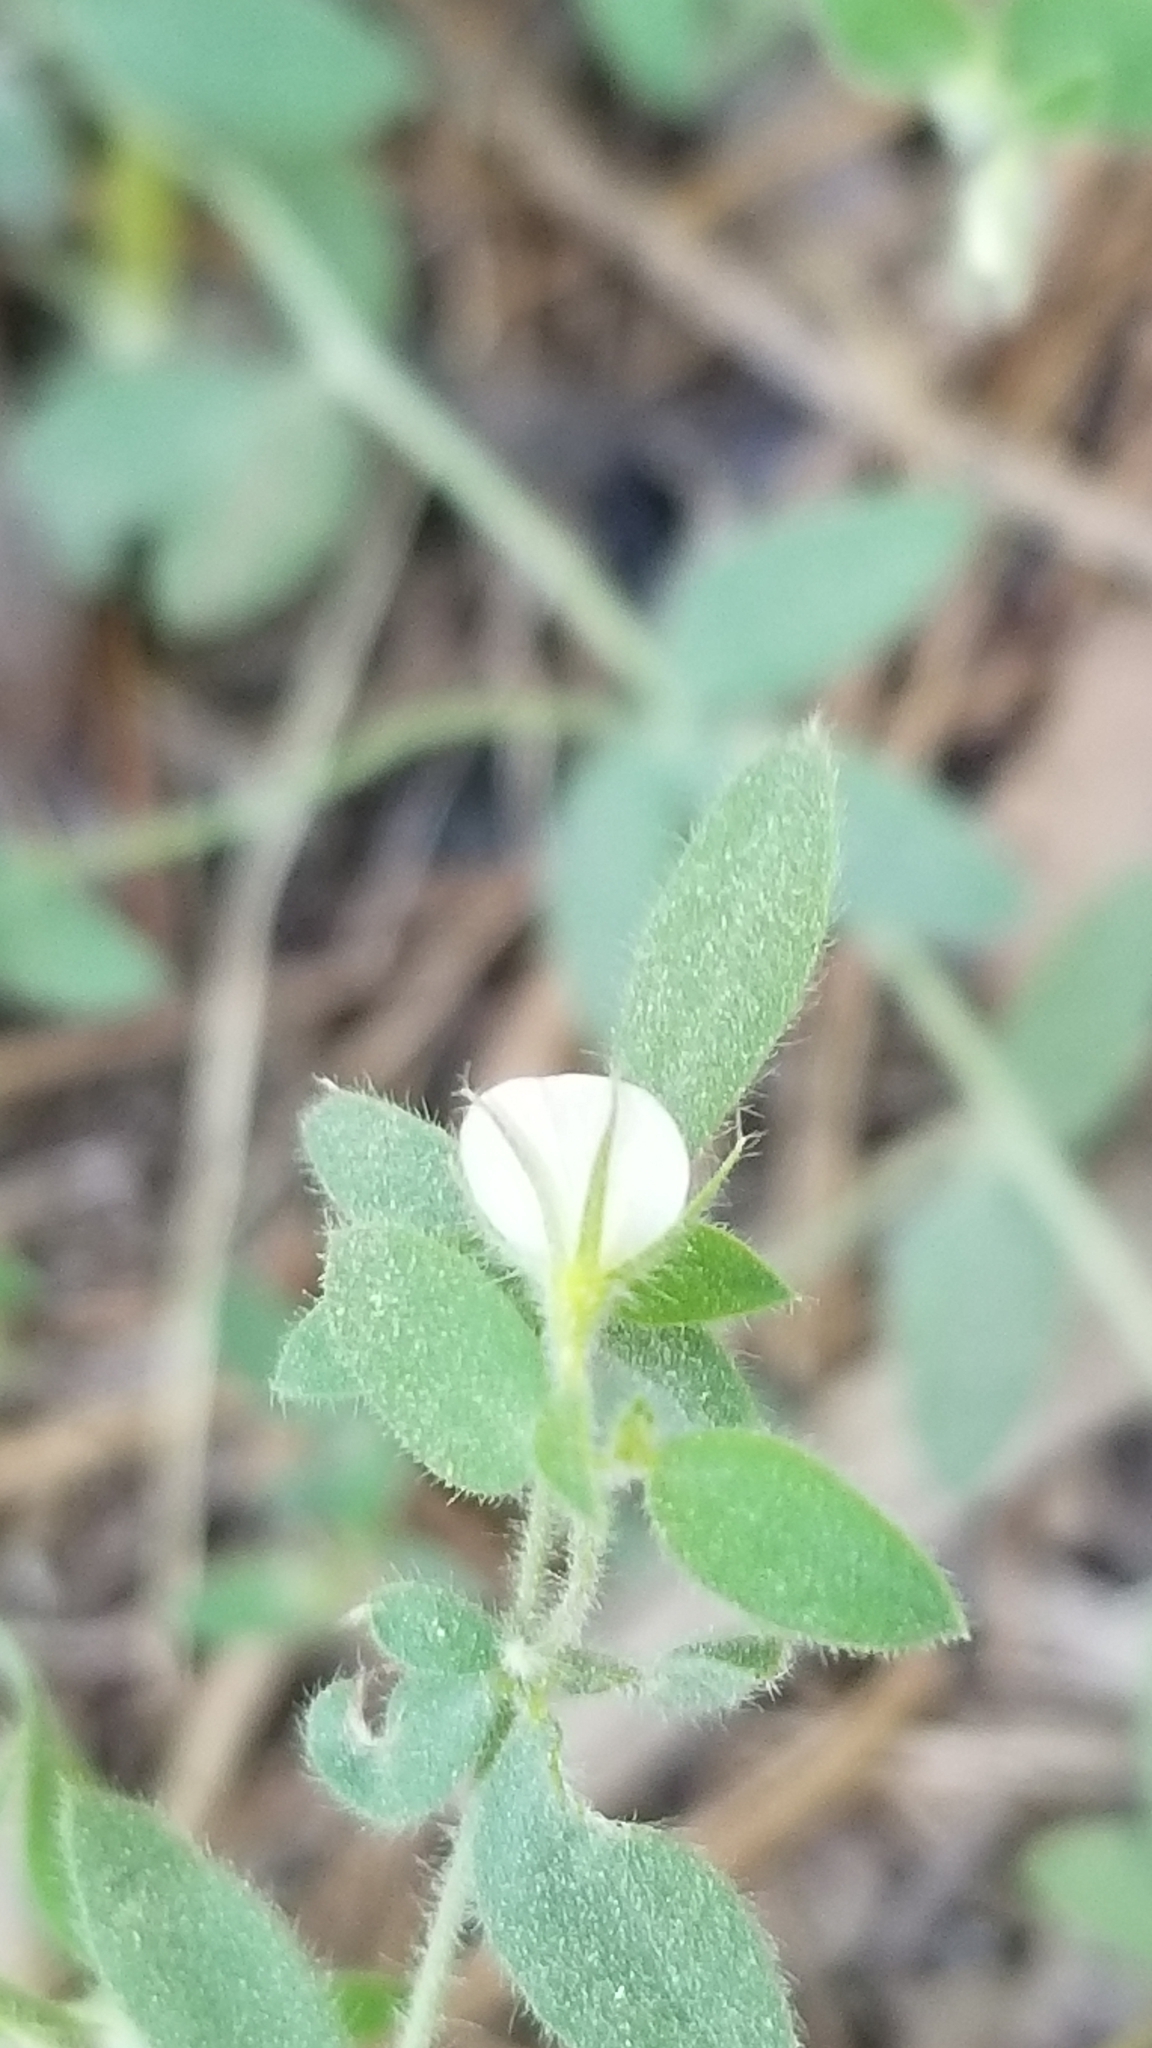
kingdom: Plantae
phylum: Tracheophyta
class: Magnoliopsida
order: Fabales
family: Fabaceae
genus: Acmispon
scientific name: Acmispon americanus
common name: American bird's-foot trefoil
